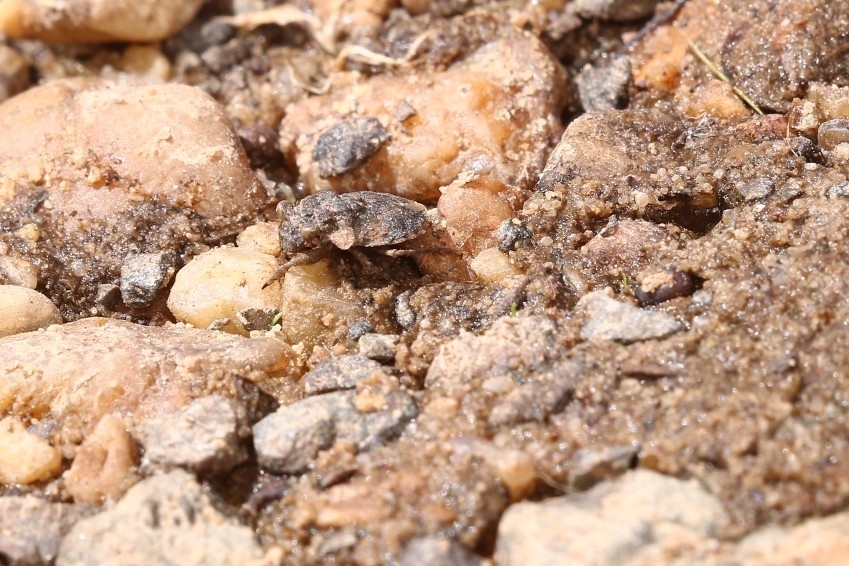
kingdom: Animalia
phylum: Arthropoda
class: Insecta
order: Hemiptera
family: Gelastocoridae
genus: Gelastocoris
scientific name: Gelastocoris oculatus
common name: Toad bug
